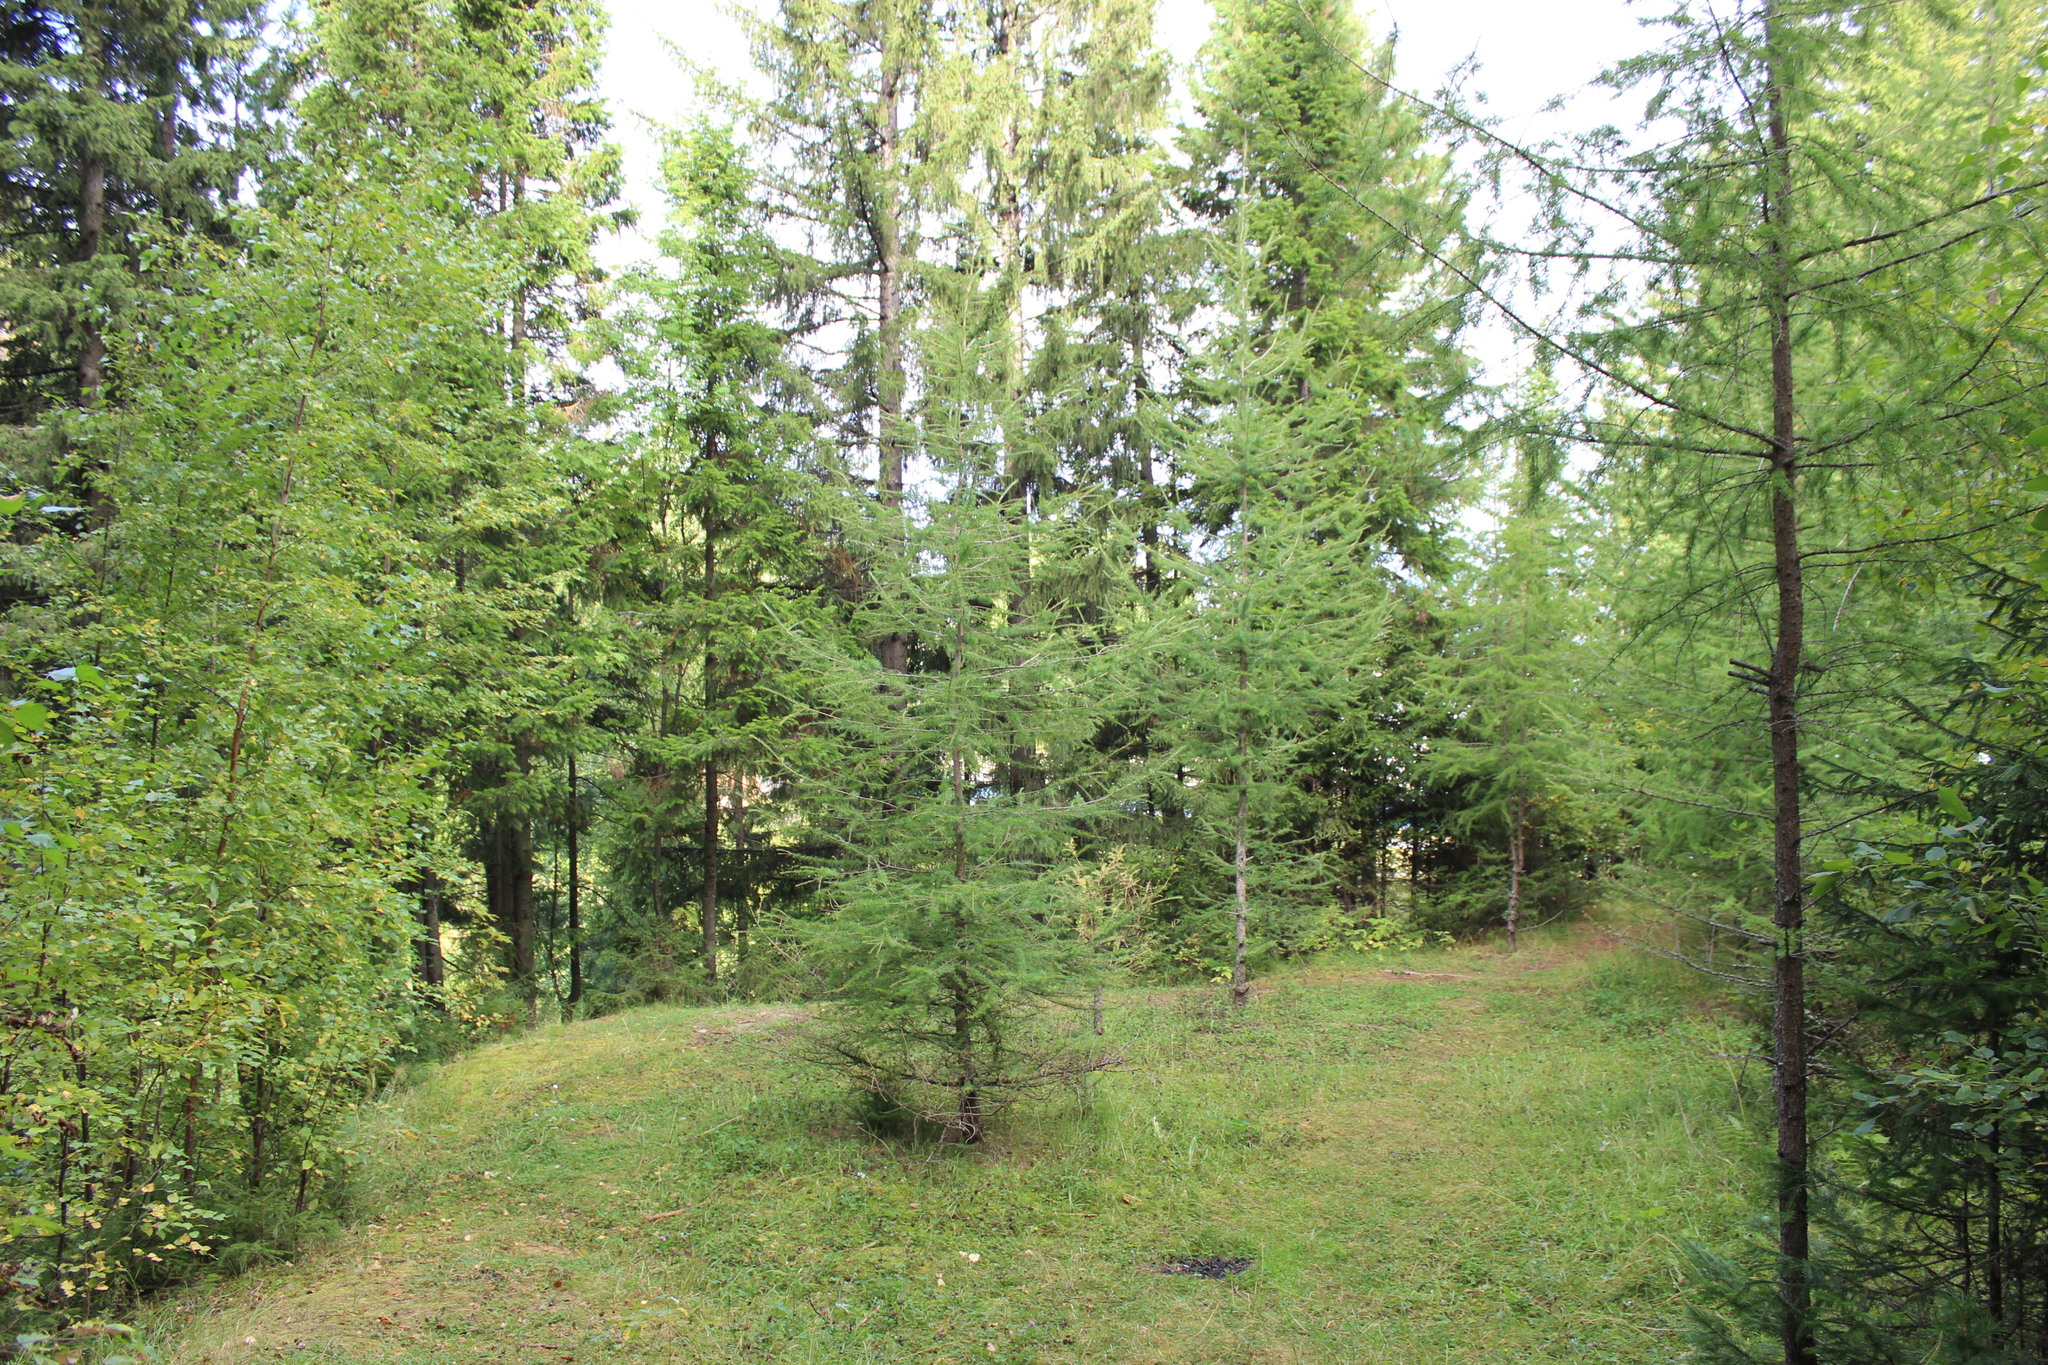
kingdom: Plantae
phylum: Tracheophyta
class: Pinopsida
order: Pinales
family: Pinaceae
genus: Larix
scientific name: Larix sibirica
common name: Siberian larch
